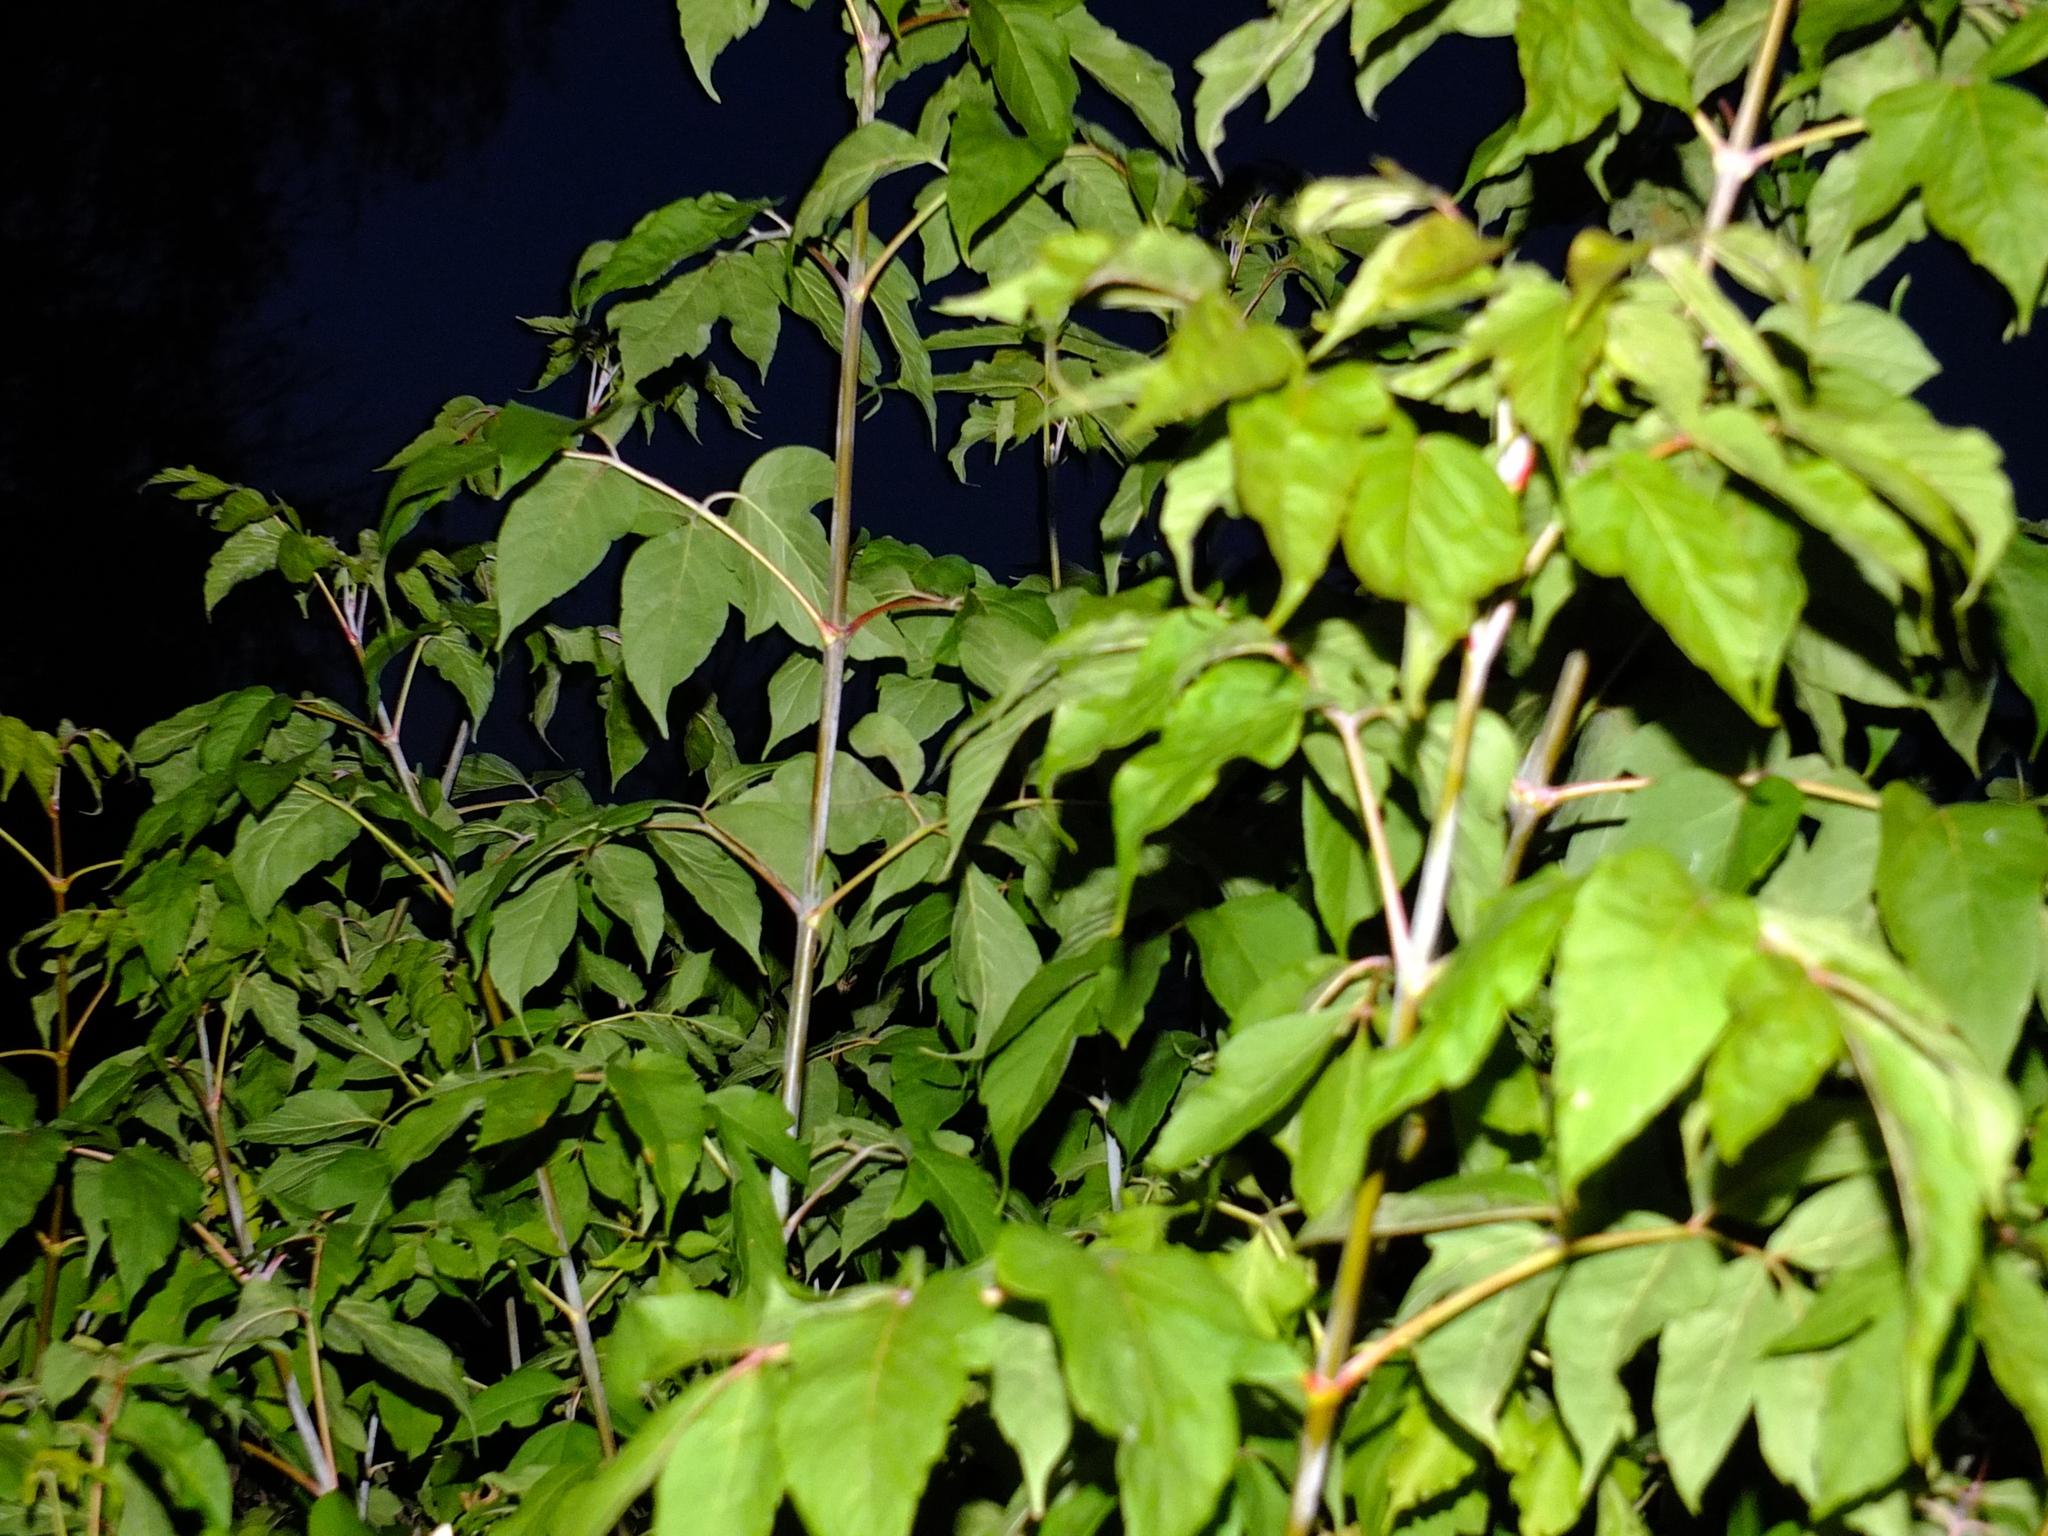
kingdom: Plantae
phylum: Tracheophyta
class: Magnoliopsida
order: Sapindales
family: Sapindaceae
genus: Acer
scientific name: Acer negundo
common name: Ashleaf maple
